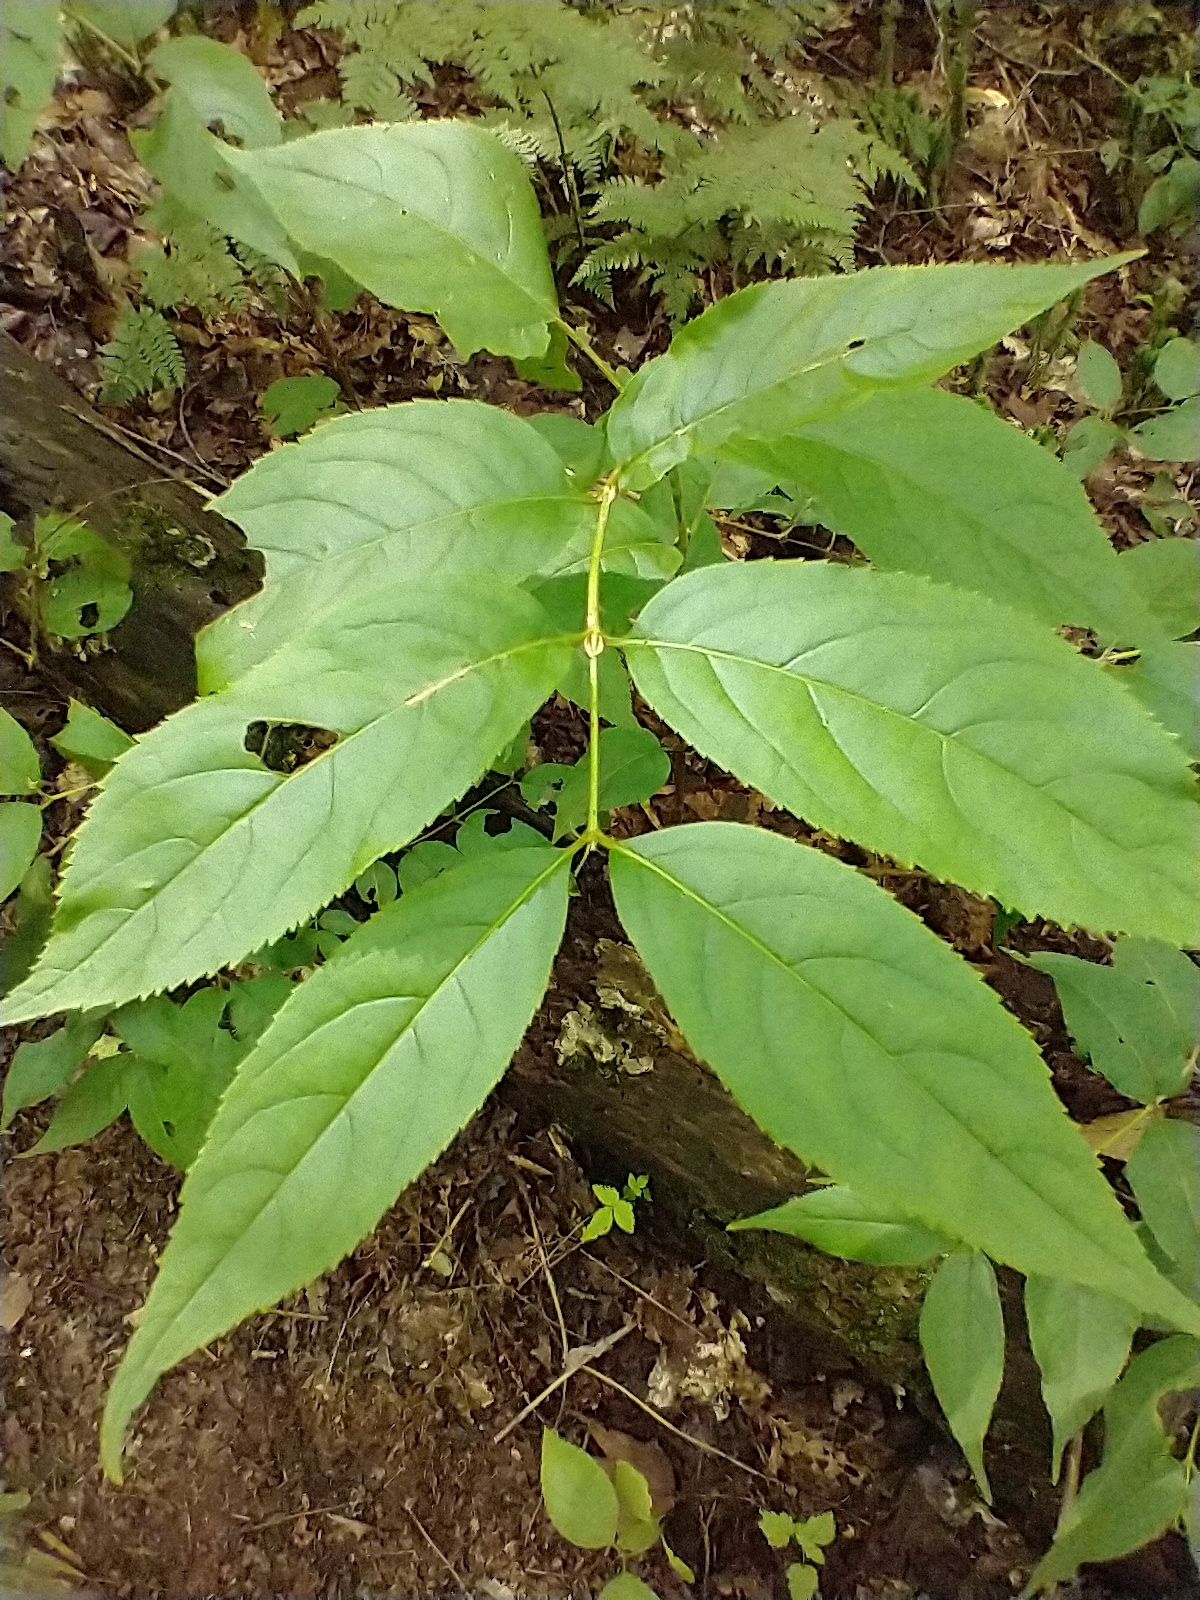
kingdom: Plantae
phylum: Tracheophyta
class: Magnoliopsida
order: Dipsacales
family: Caprifoliaceae
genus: Diervilla
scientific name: Diervilla lonicera
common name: Bush-honeysuckle
